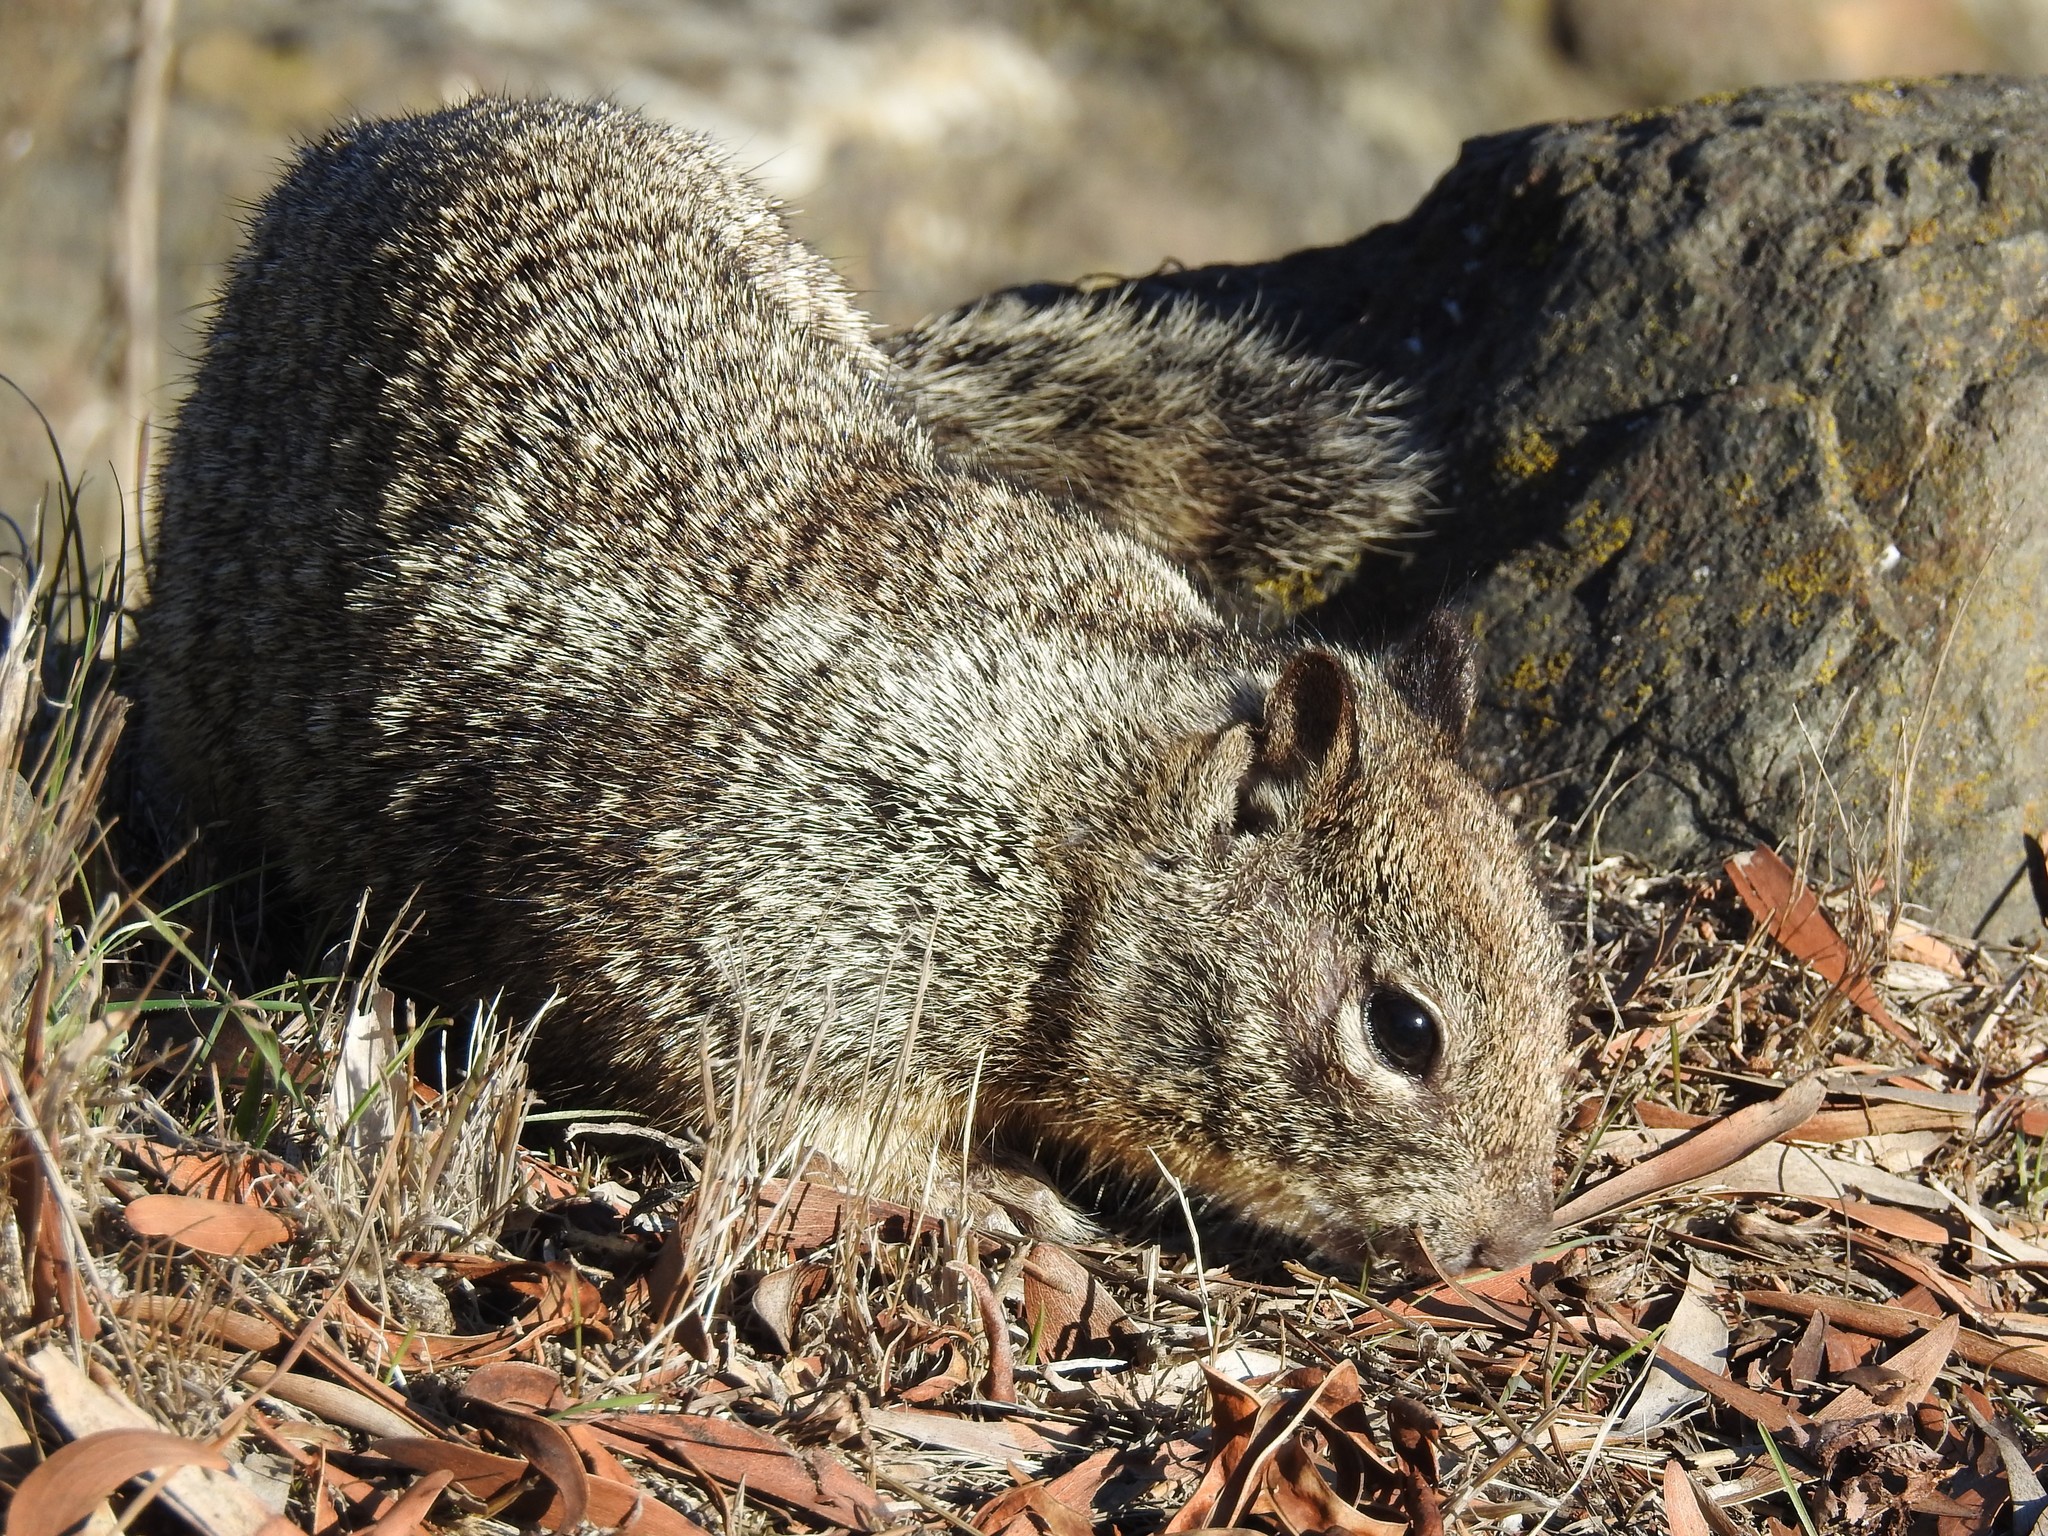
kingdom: Animalia
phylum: Chordata
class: Mammalia
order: Rodentia
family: Sciuridae
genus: Otospermophilus
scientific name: Otospermophilus beecheyi
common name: California ground squirrel
